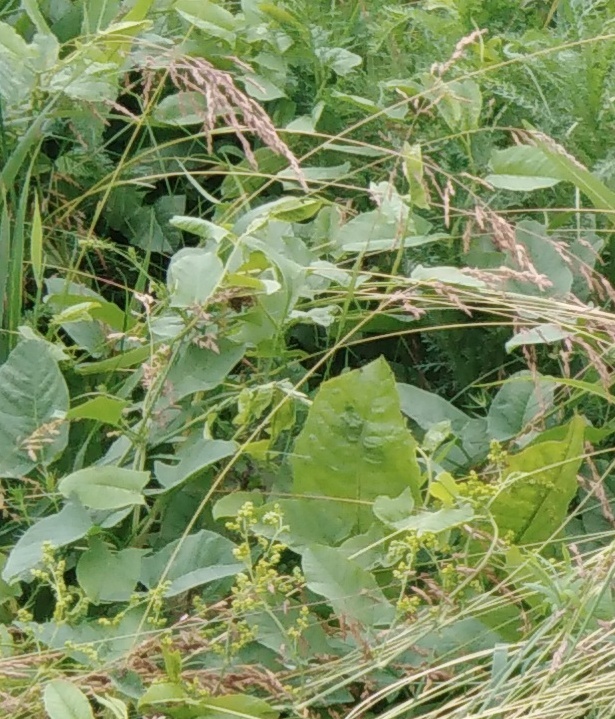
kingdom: Plantae
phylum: Tracheophyta
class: Magnoliopsida
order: Solanales
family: Convolvulaceae
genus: Convolvulus
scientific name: Convolvulus arvensis
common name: Field bindweed
